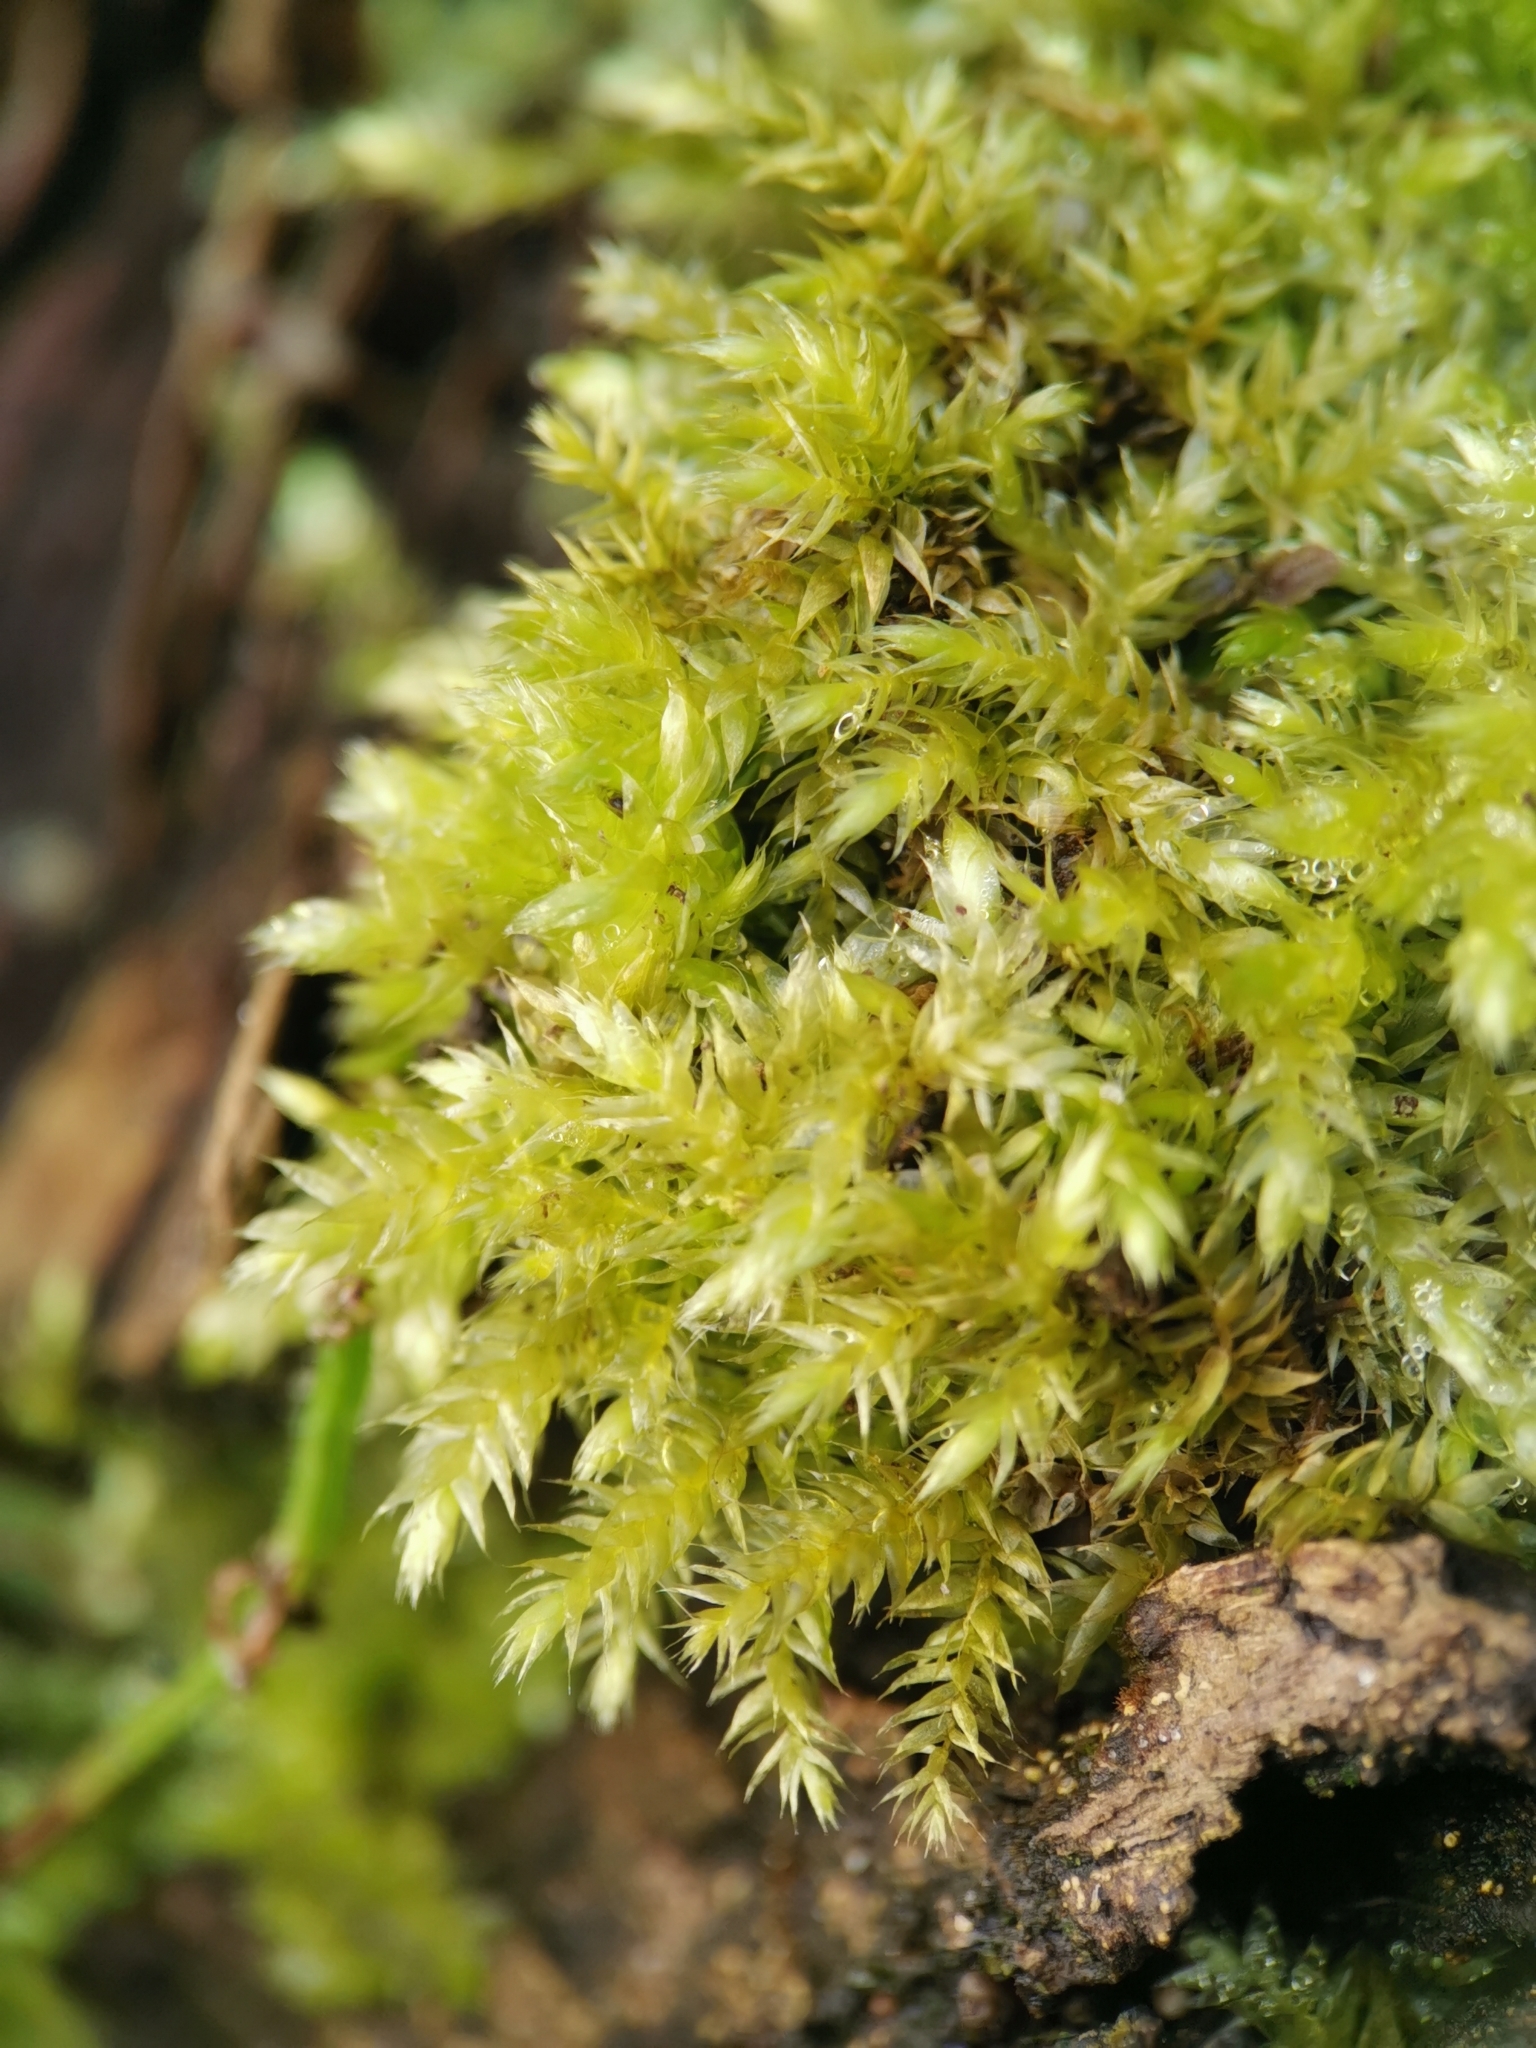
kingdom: Plantae
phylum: Bryophyta
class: Bryopsida
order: Hypnales
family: Brachytheciaceae
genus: Brachythecium
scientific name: Brachythecium rutabulum
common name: Rough-stalked feather-moss
